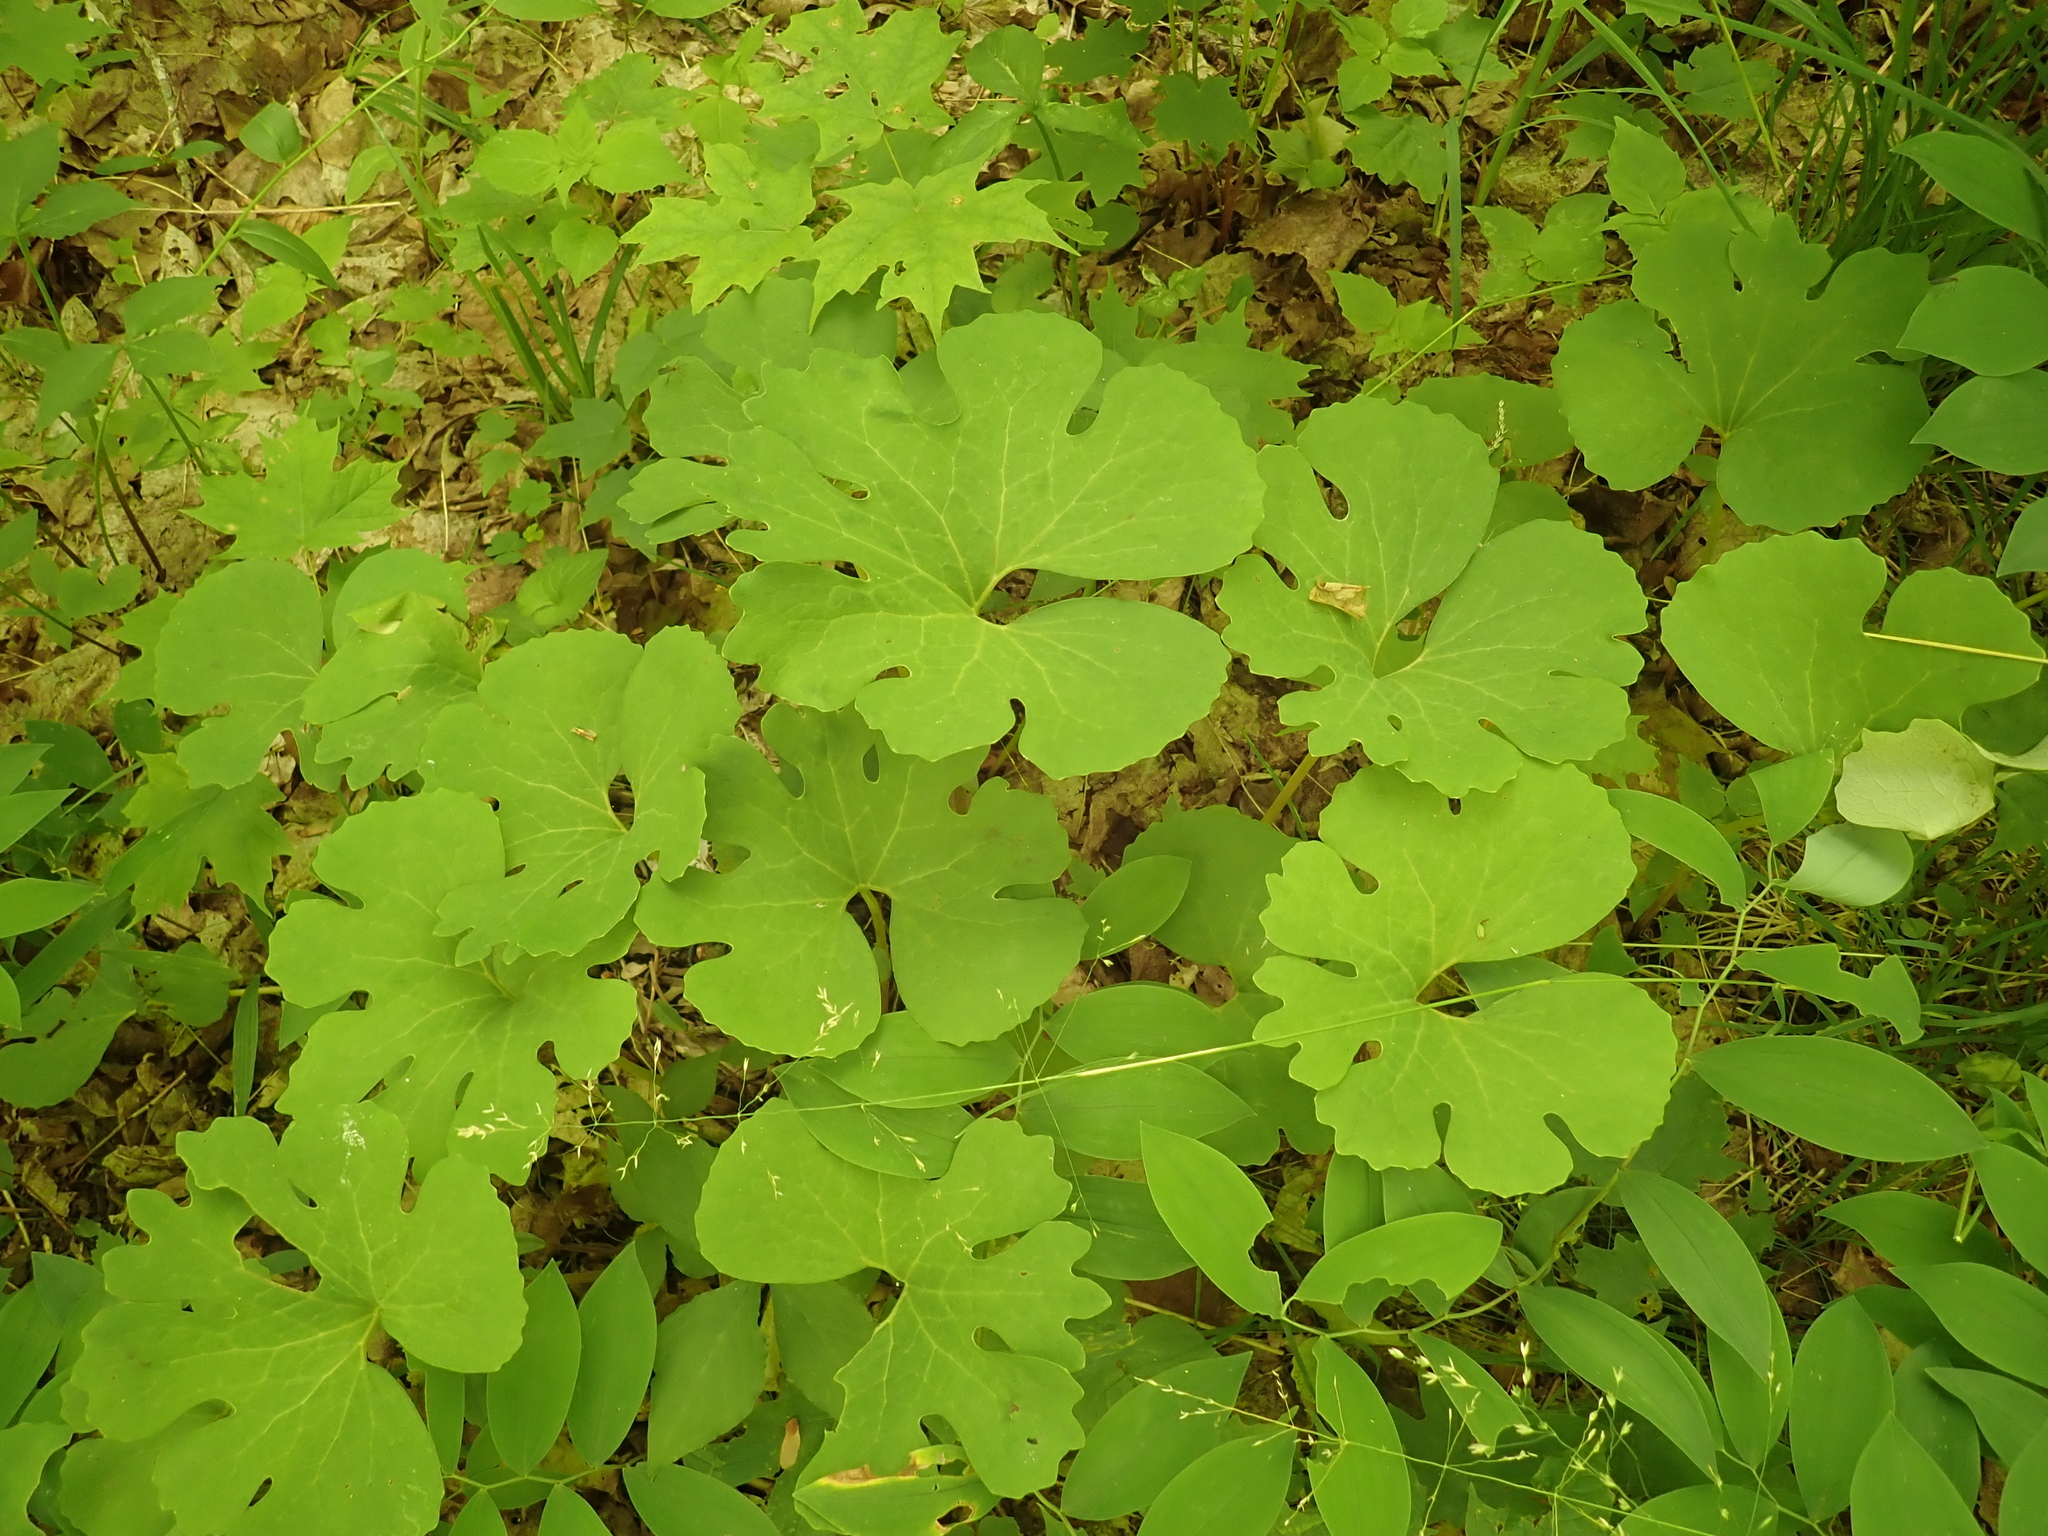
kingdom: Plantae
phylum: Tracheophyta
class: Magnoliopsida
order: Ranunculales
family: Papaveraceae
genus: Sanguinaria
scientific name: Sanguinaria canadensis
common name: Bloodroot
